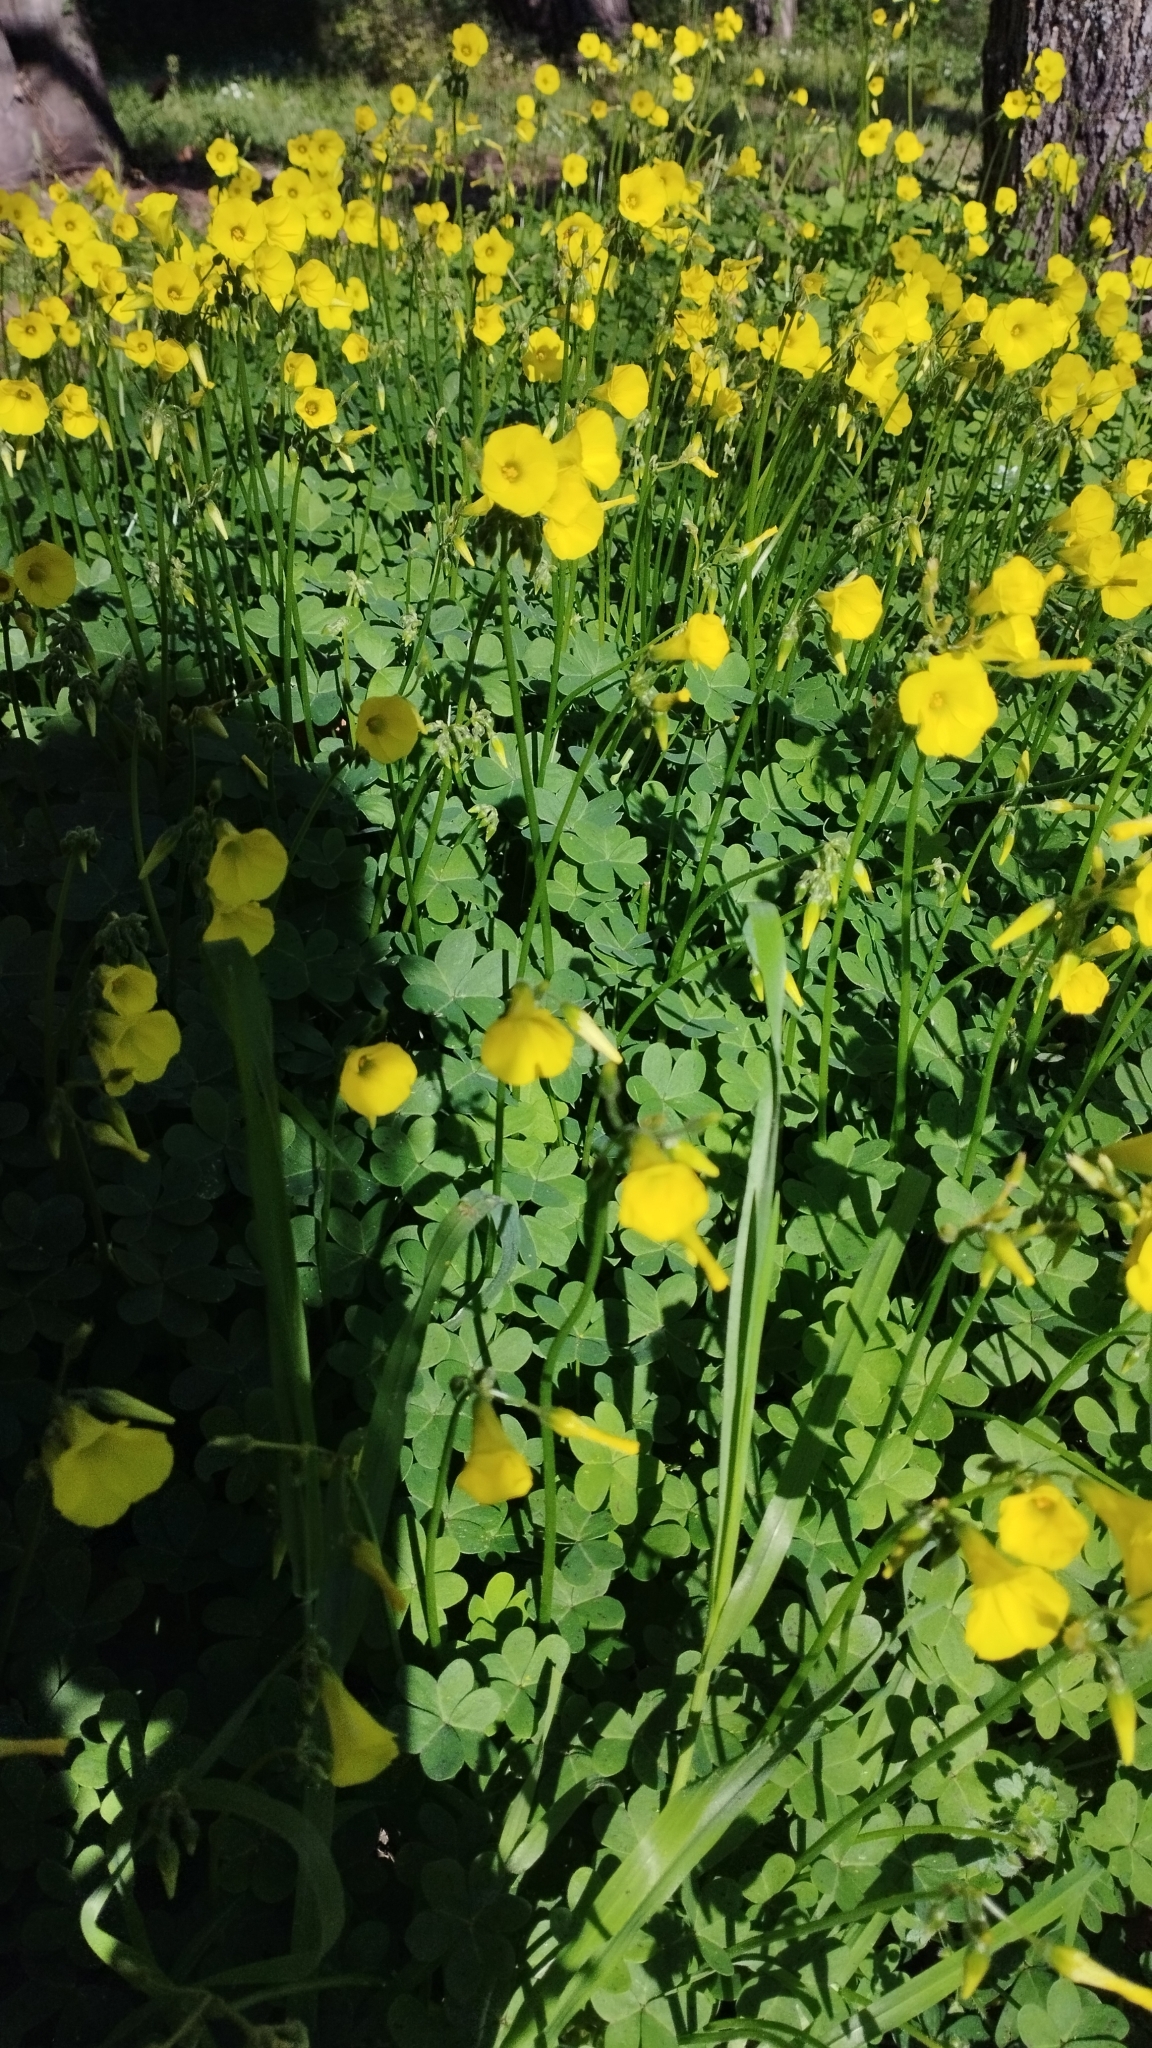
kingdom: Plantae
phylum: Tracheophyta
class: Magnoliopsida
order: Oxalidales
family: Oxalidaceae
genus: Oxalis
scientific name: Oxalis pes-caprae
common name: Bermuda-buttercup
